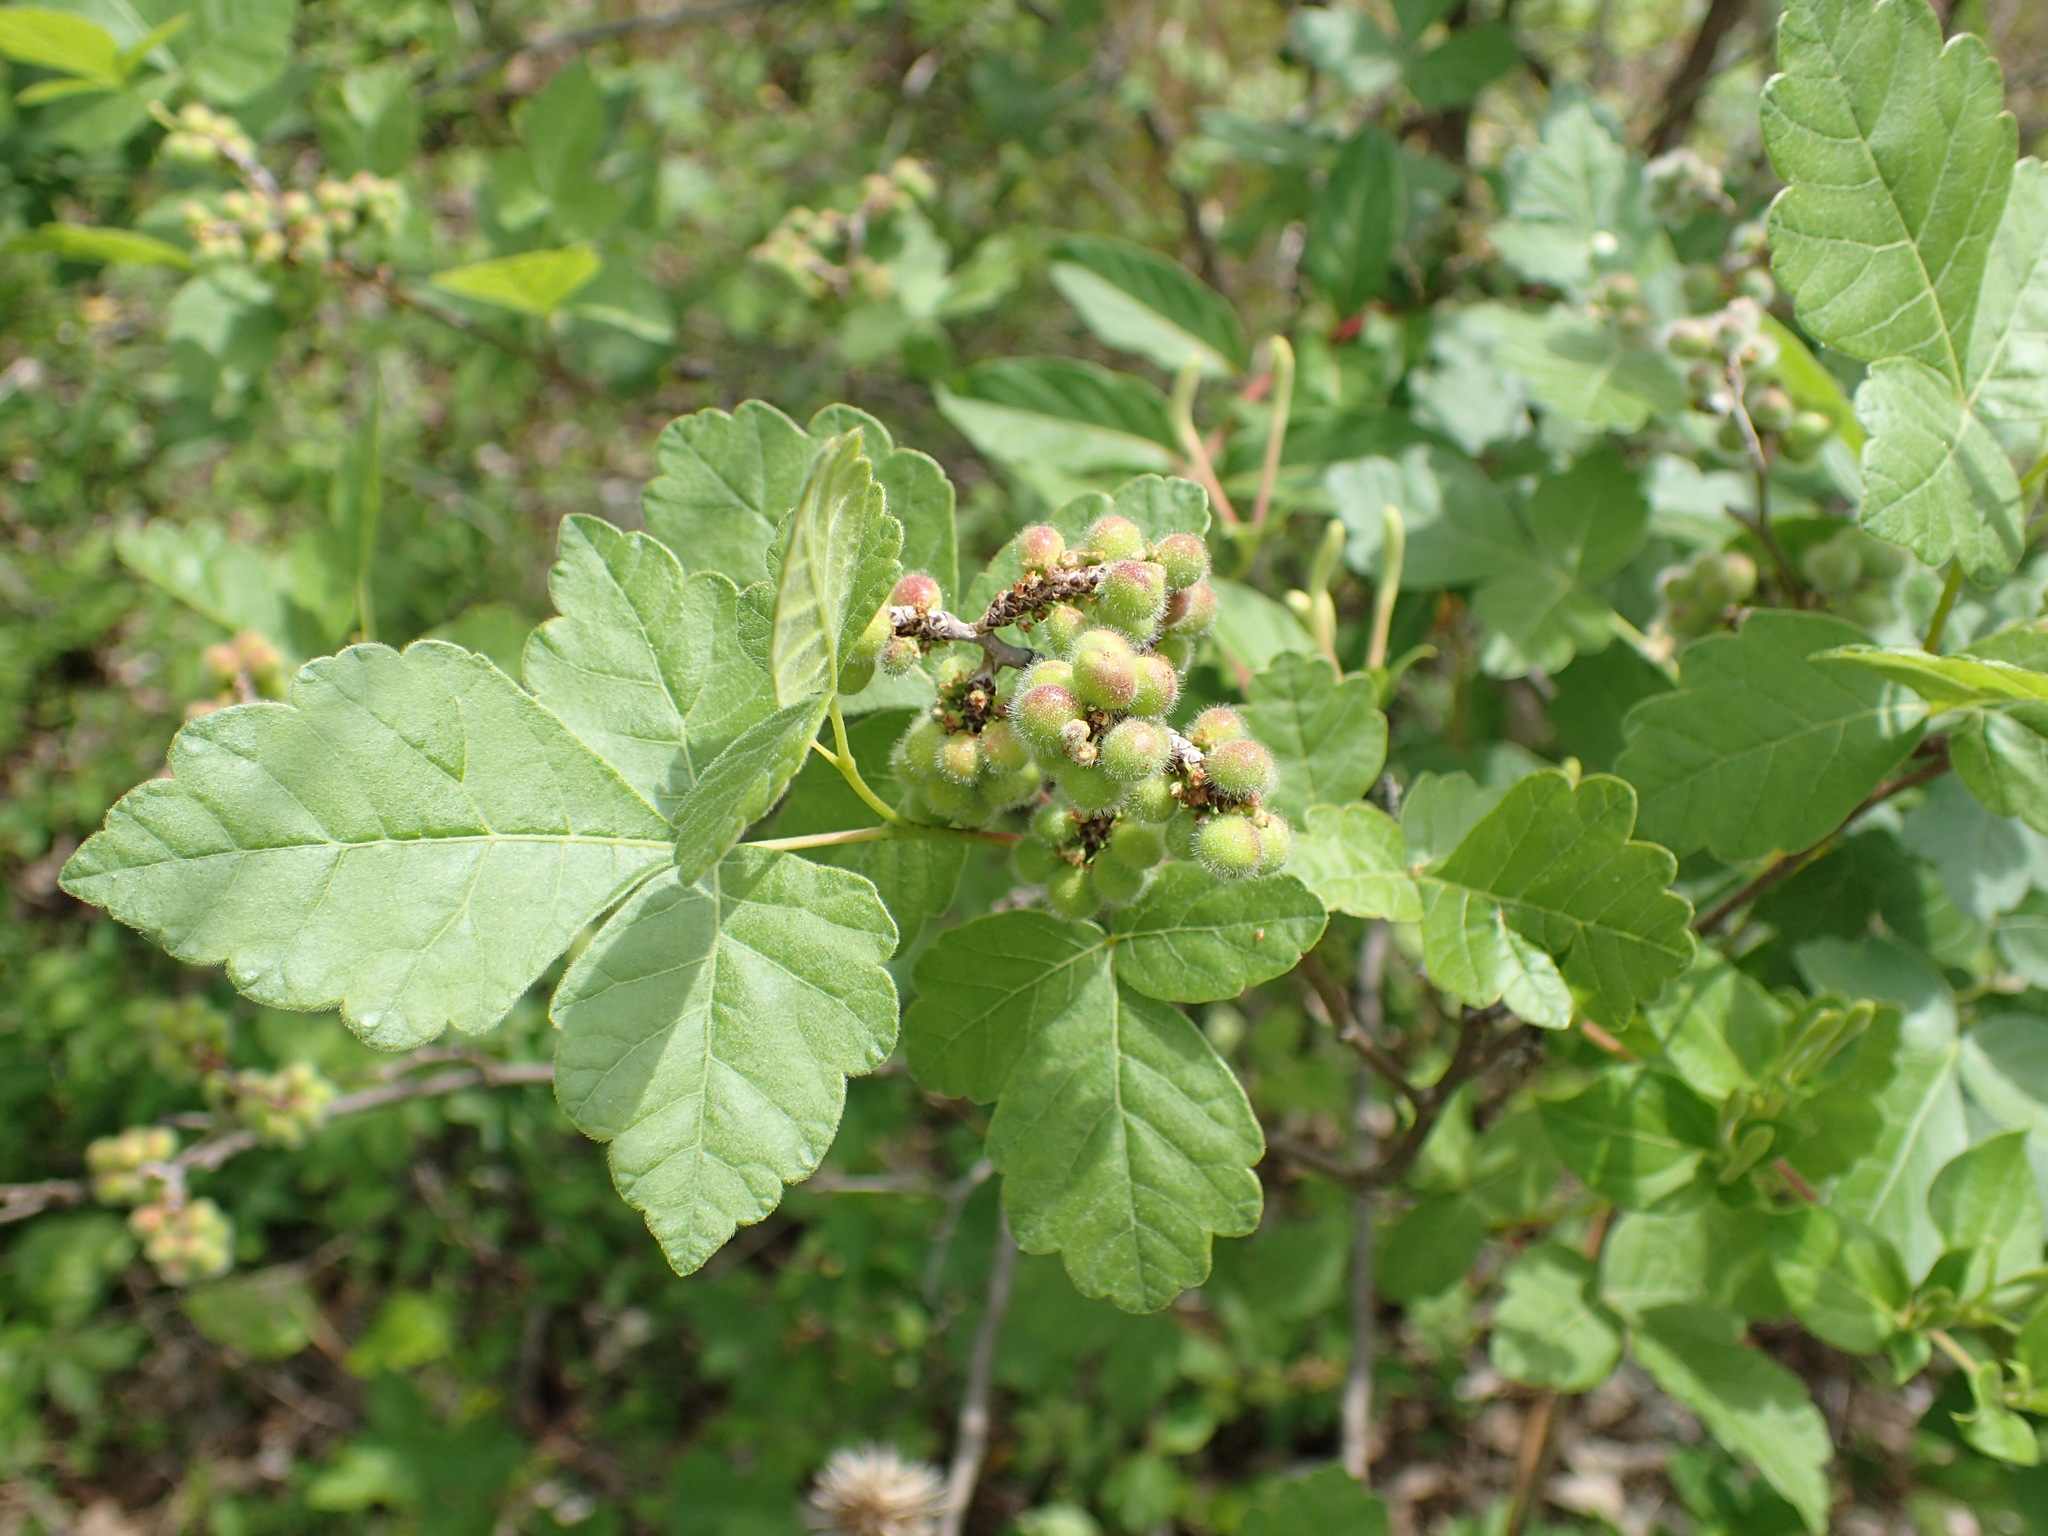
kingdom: Plantae
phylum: Tracheophyta
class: Magnoliopsida
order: Sapindales
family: Anacardiaceae
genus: Rhus
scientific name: Rhus aromatica
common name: Aromatic sumac
